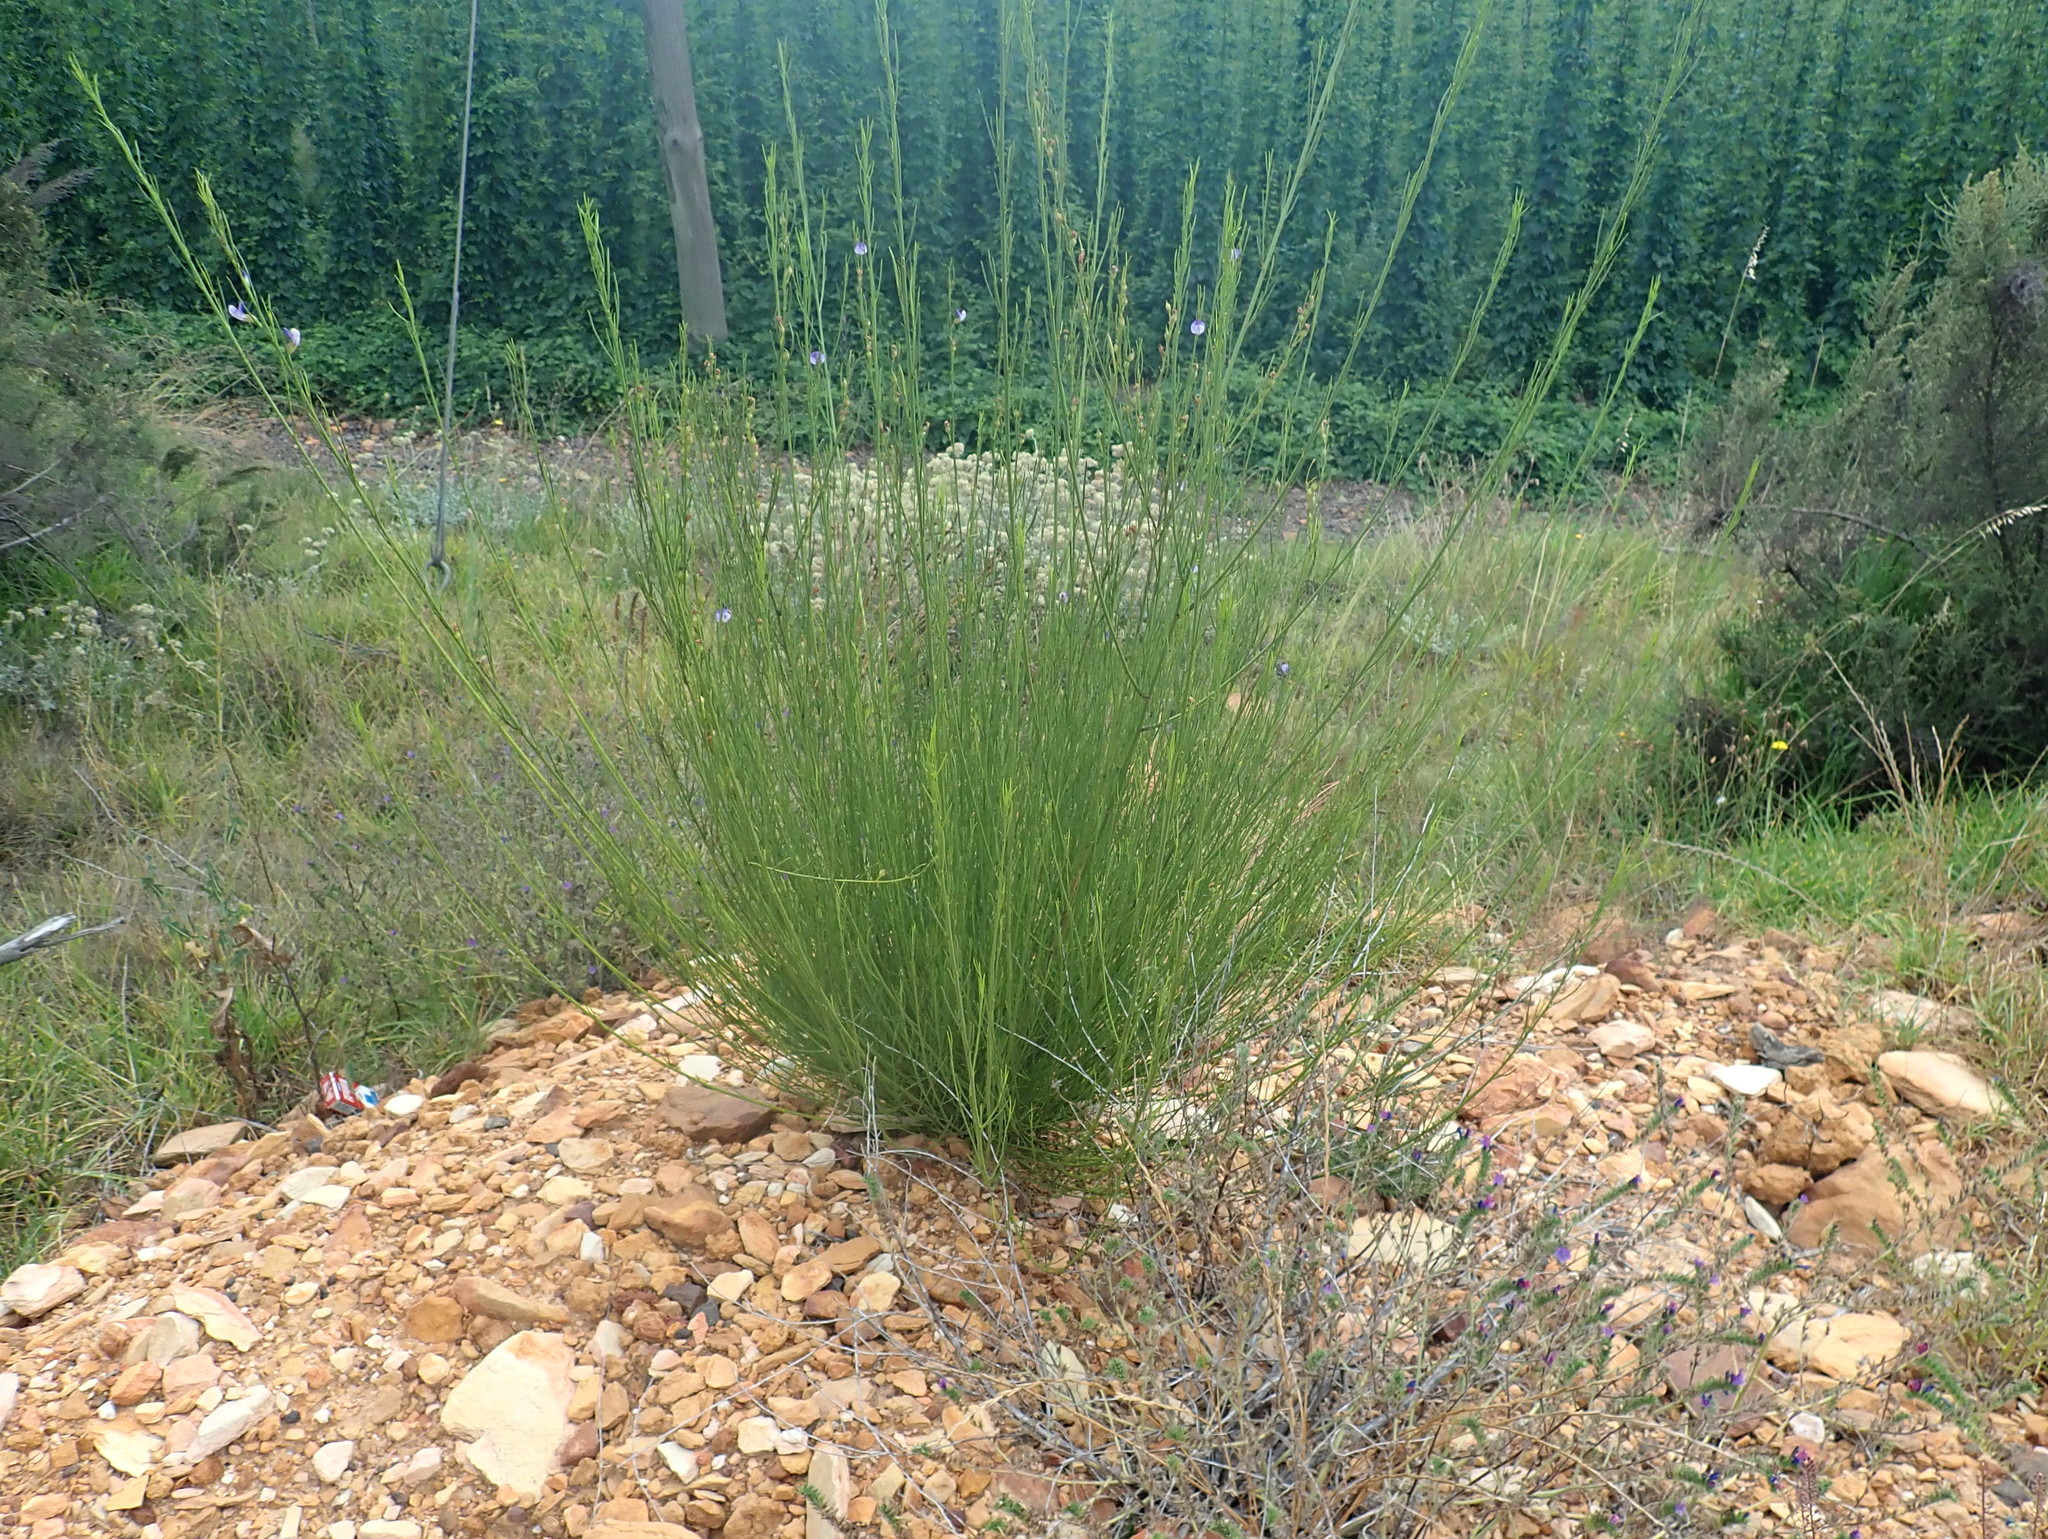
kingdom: Plantae
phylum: Tracheophyta
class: Magnoliopsida
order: Fabales
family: Fabaceae
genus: Psoralea
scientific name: Psoralea diturnerae
